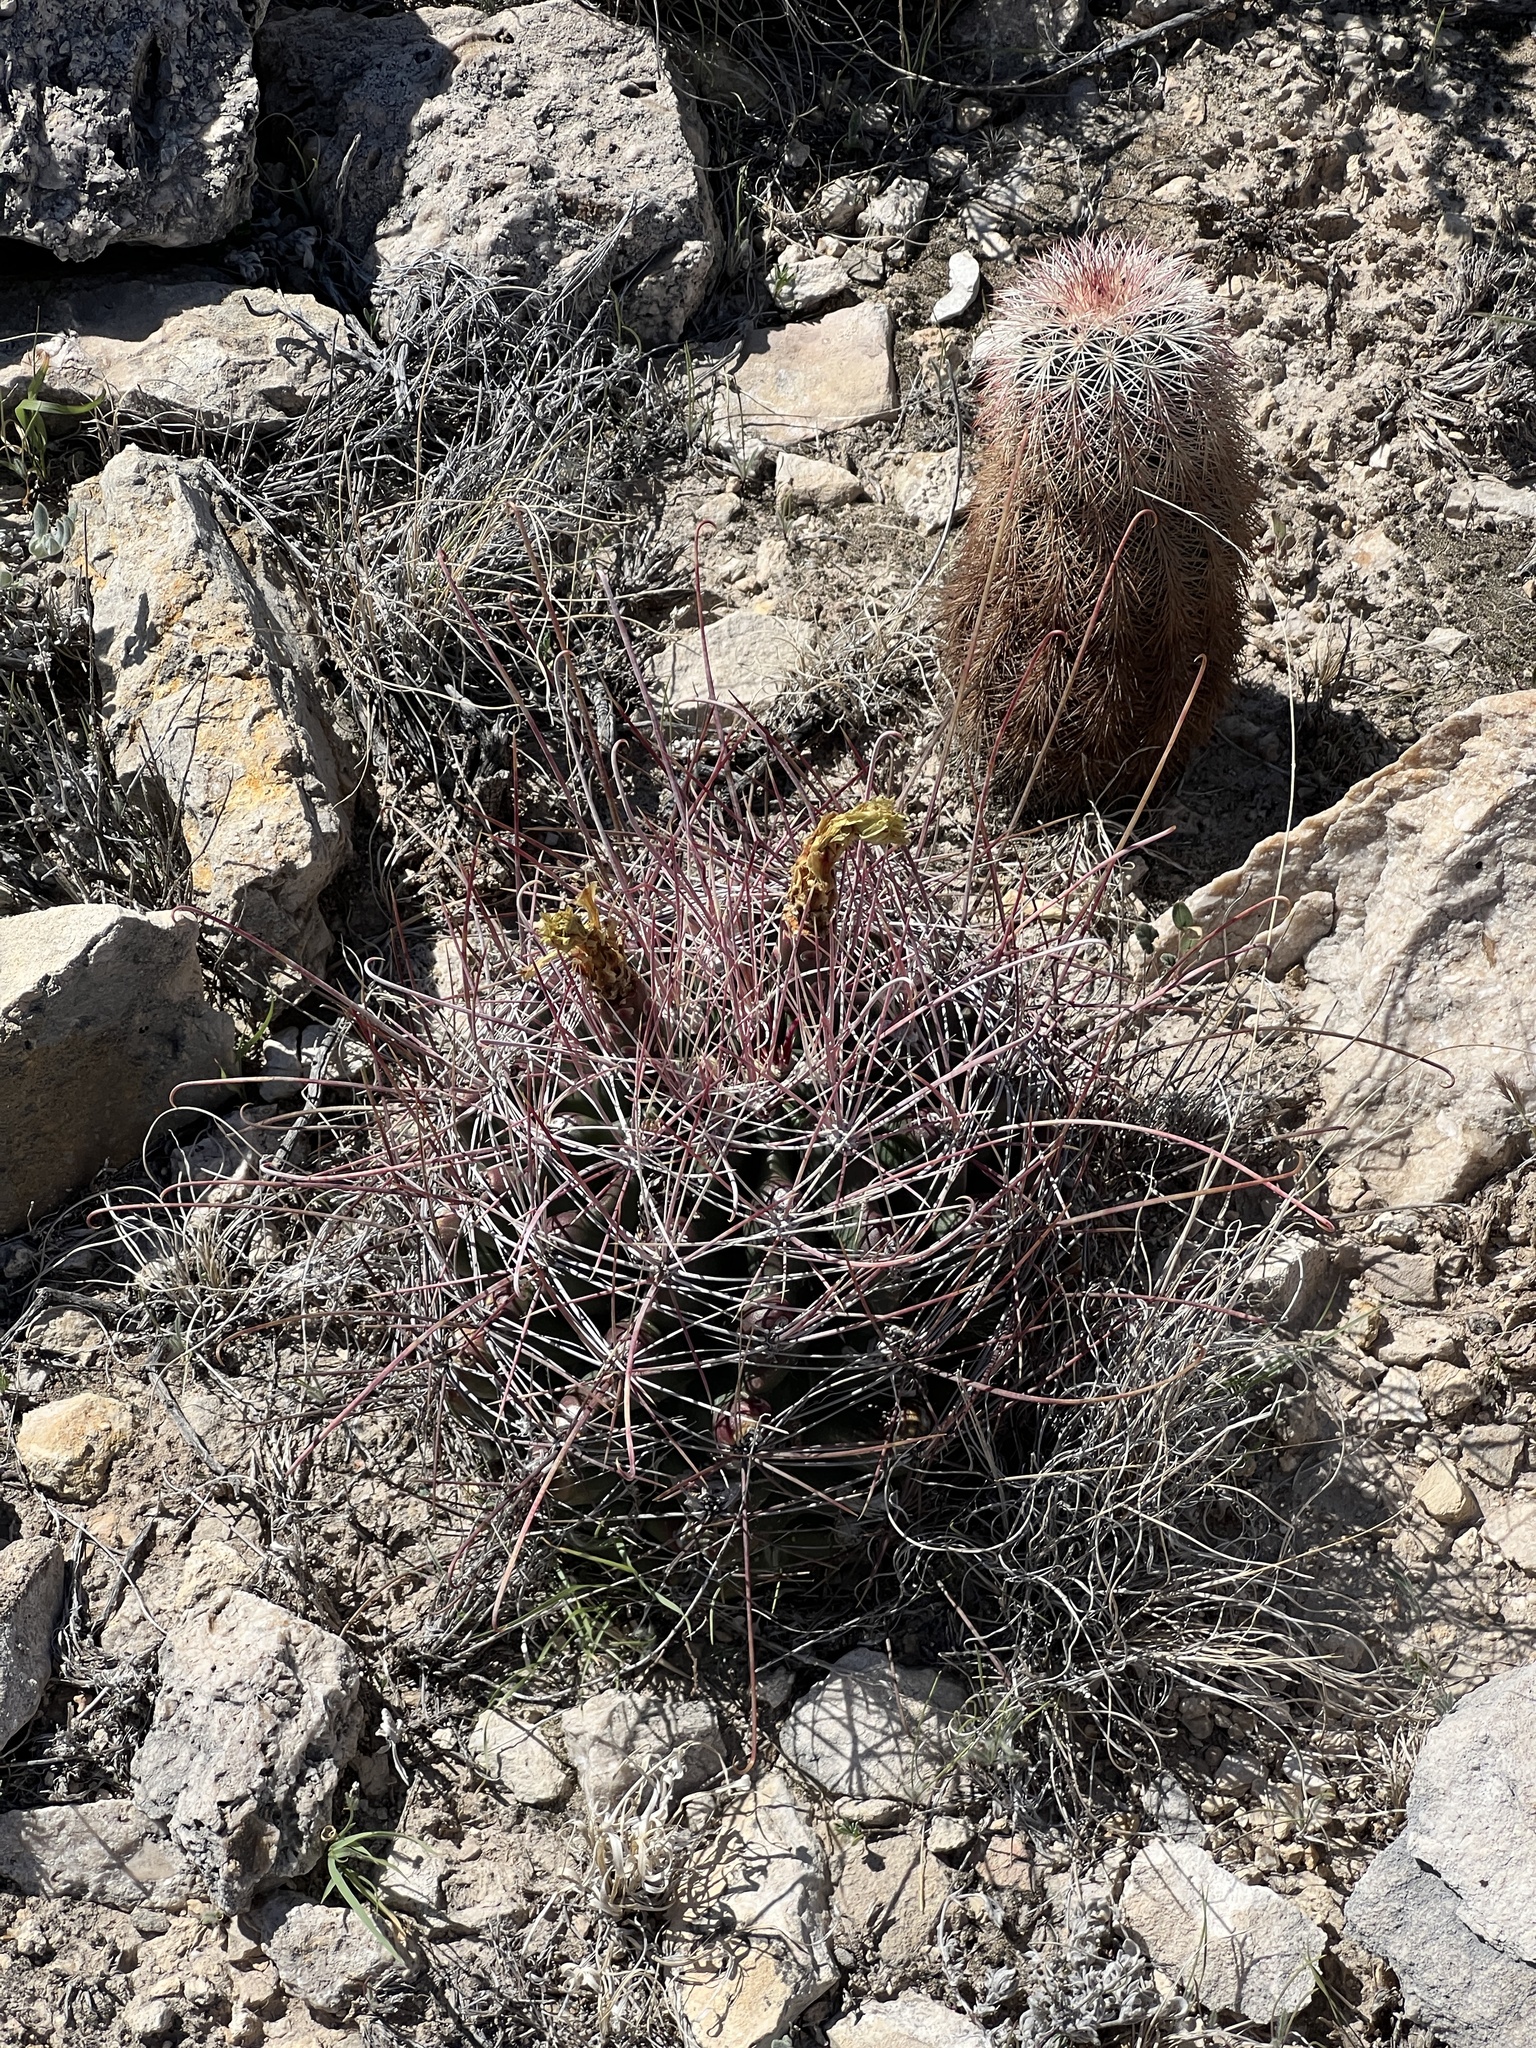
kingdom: Plantae
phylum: Tracheophyta
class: Magnoliopsida
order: Caryophyllales
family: Cactaceae
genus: Bisnaga
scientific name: Bisnaga hamatacantha
